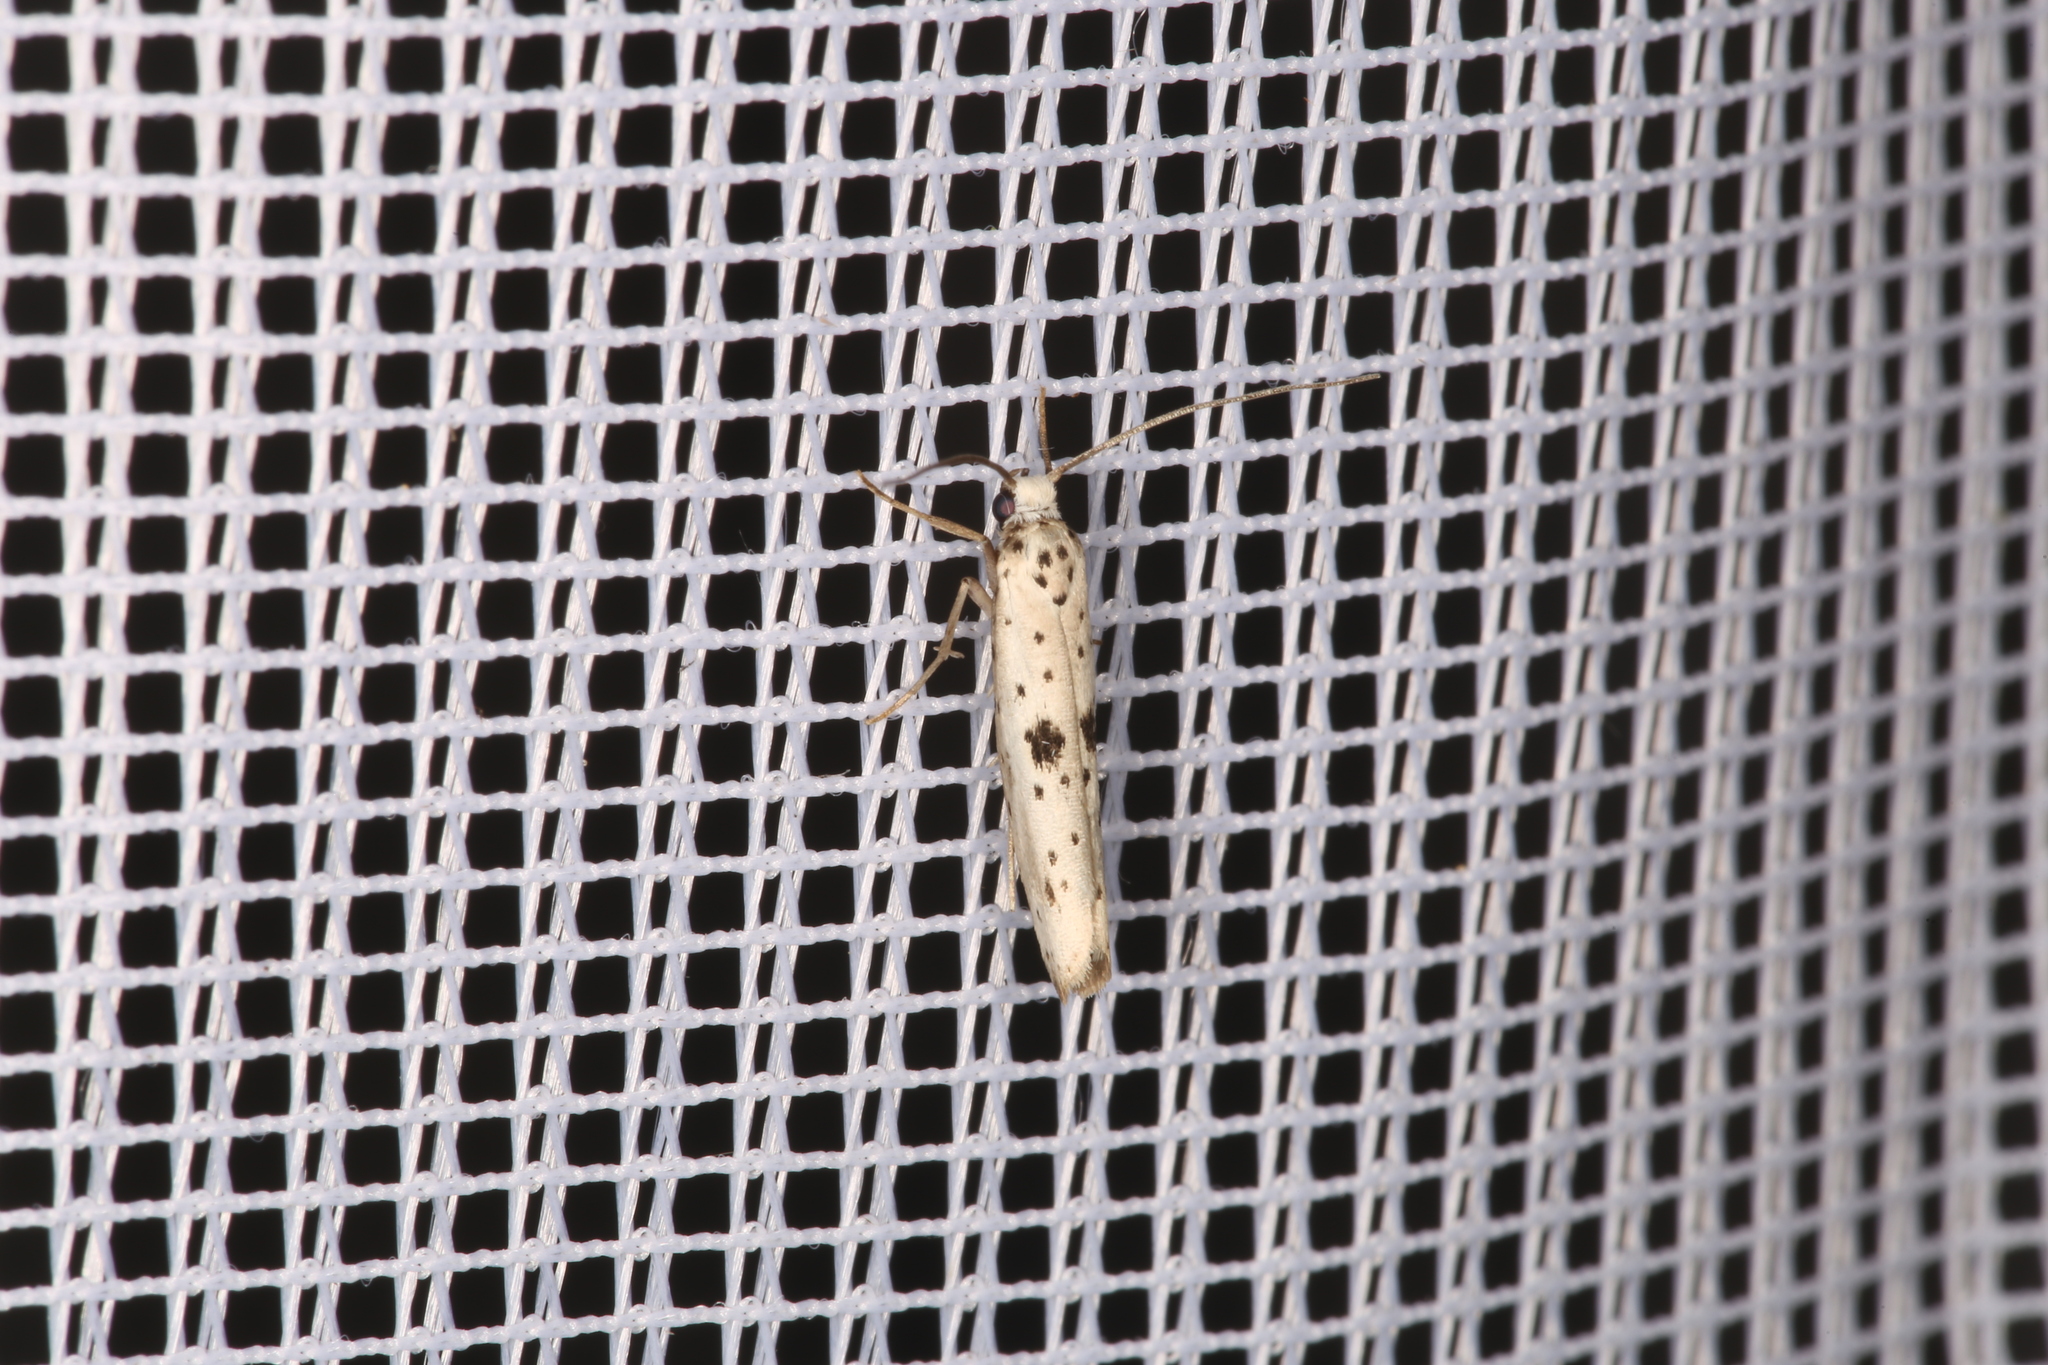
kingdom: Animalia
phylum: Arthropoda
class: Insecta
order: Lepidoptera
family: Yponomeutidae
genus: Yponomeuta
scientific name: Yponomeuta plumbella
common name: Black-tipped ermine
